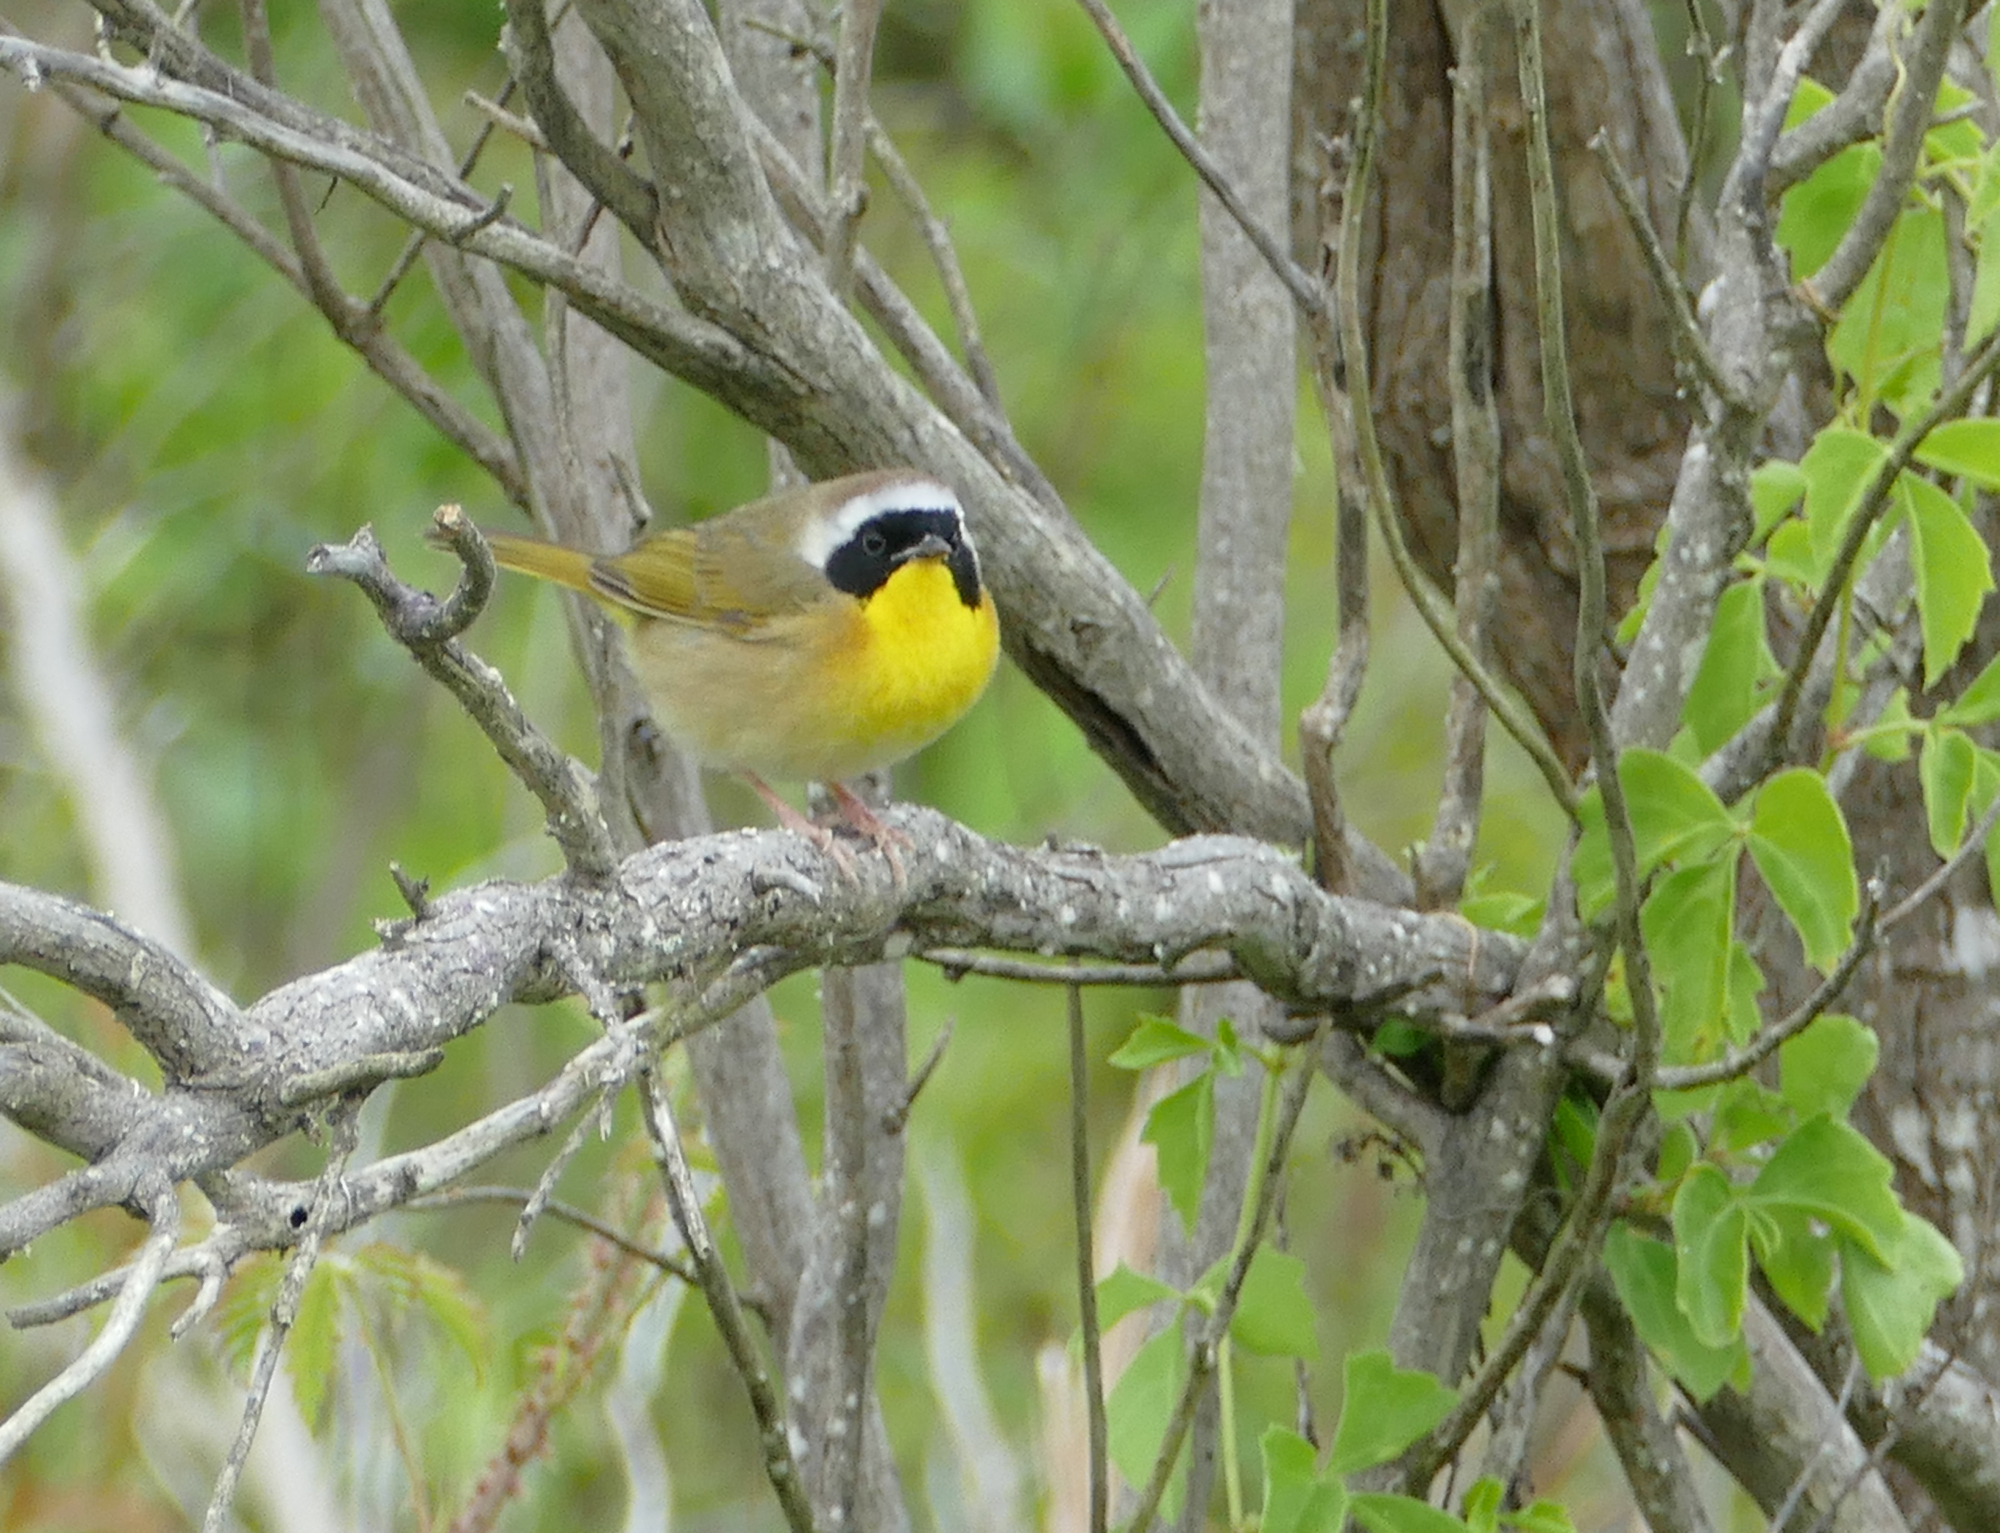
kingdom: Animalia
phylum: Chordata
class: Aves
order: Passeriformes
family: Parulidae
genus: Geothlypis
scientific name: Geothlypis trichas
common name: Common yellowthroat
